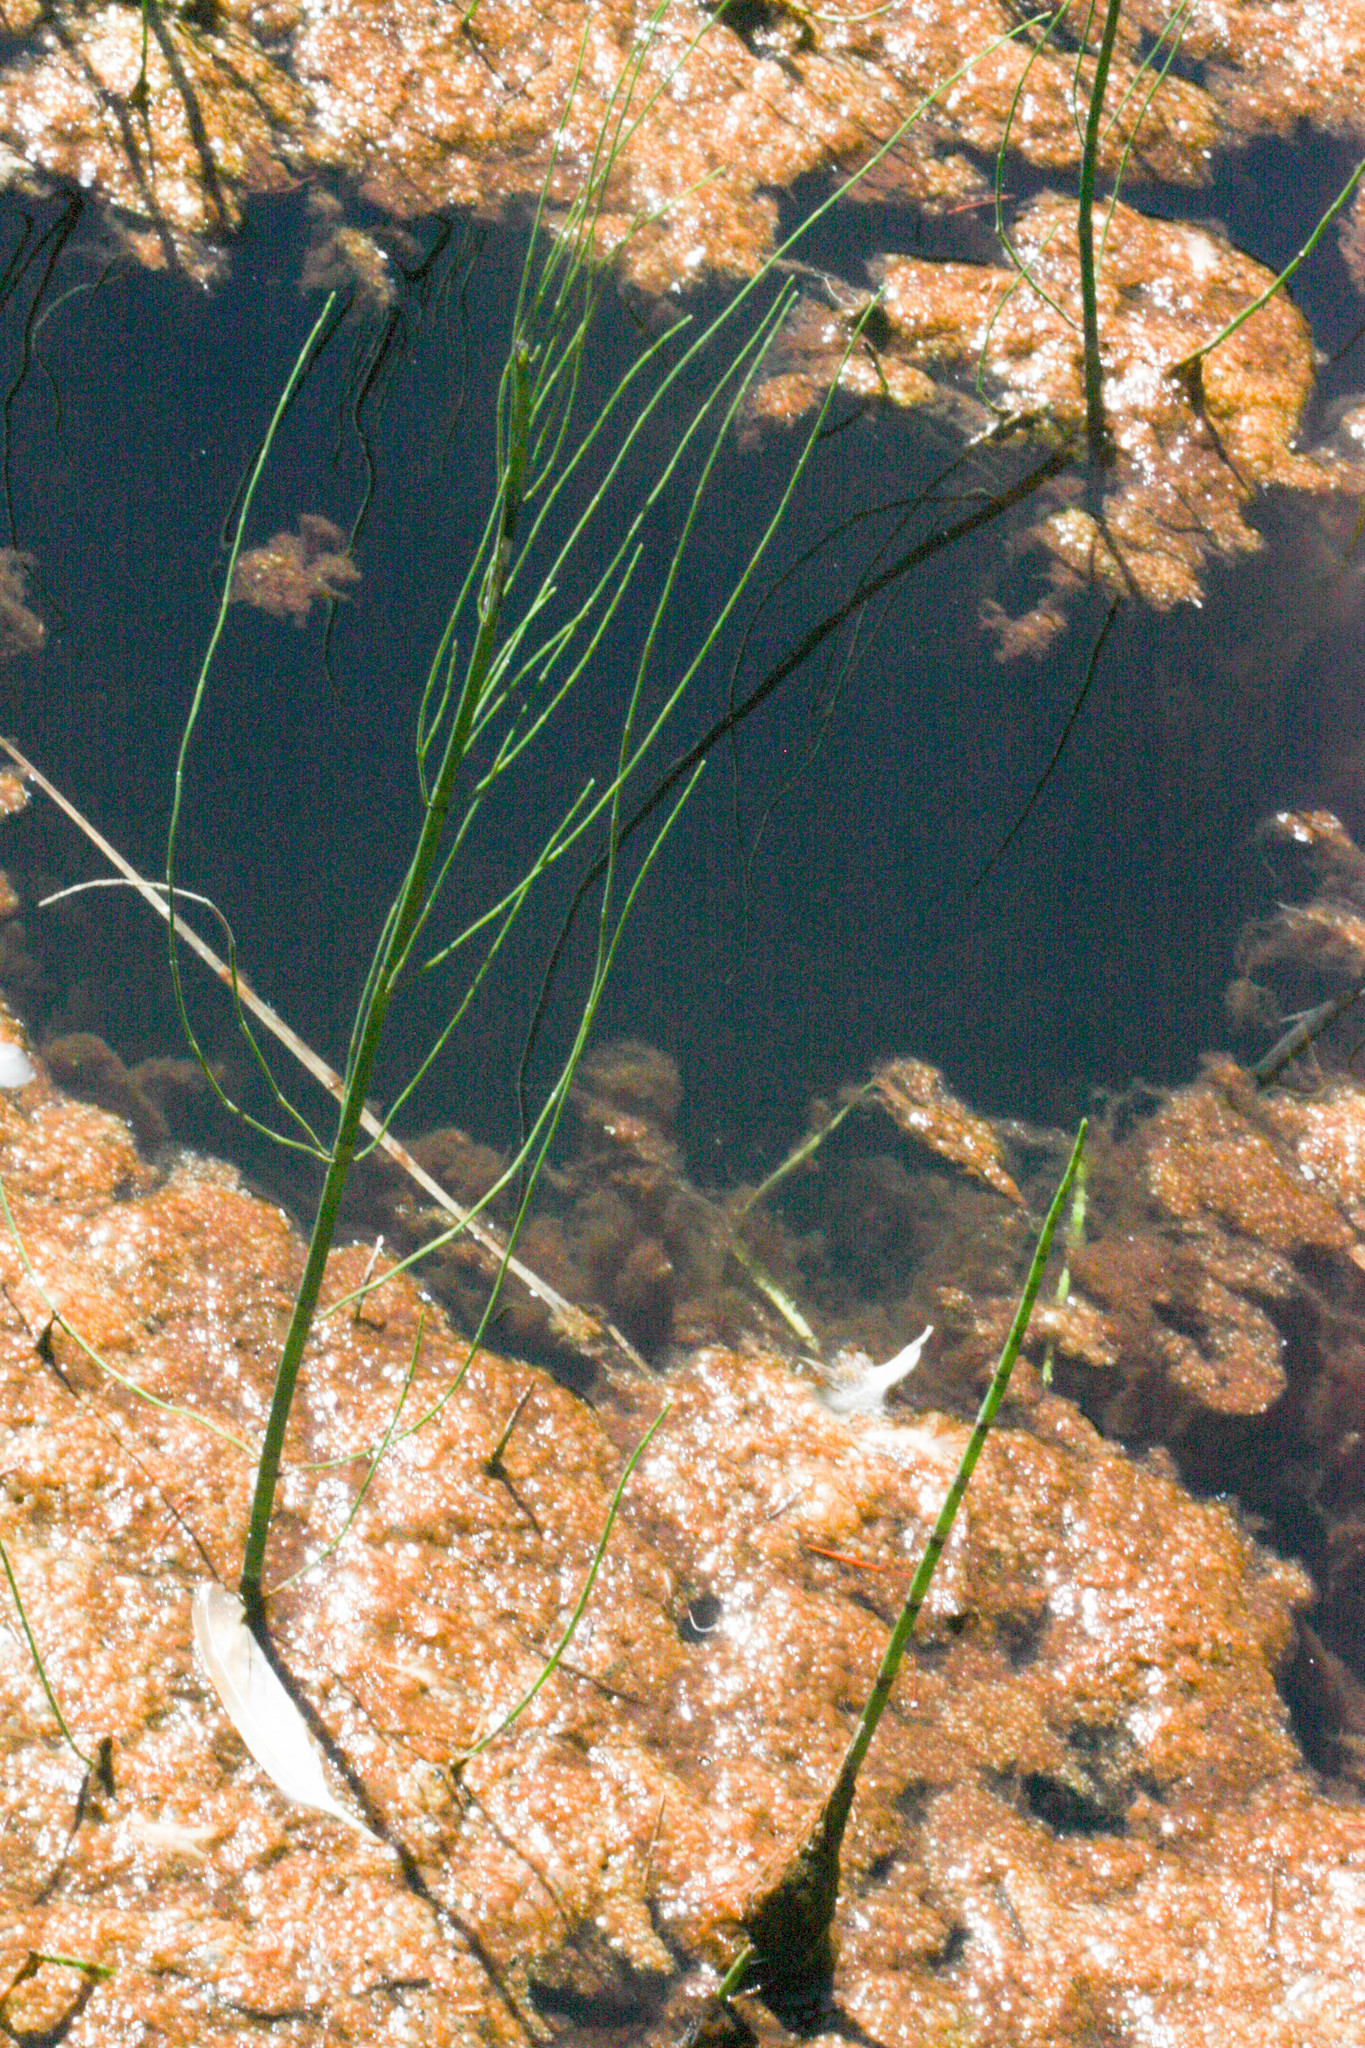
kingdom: Plantae
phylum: Tracheophyta
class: Polypodiopsida
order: Equisetales
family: Equisetaceae
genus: Equisetum
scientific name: Equisetum palustre
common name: Marsh horsetail
